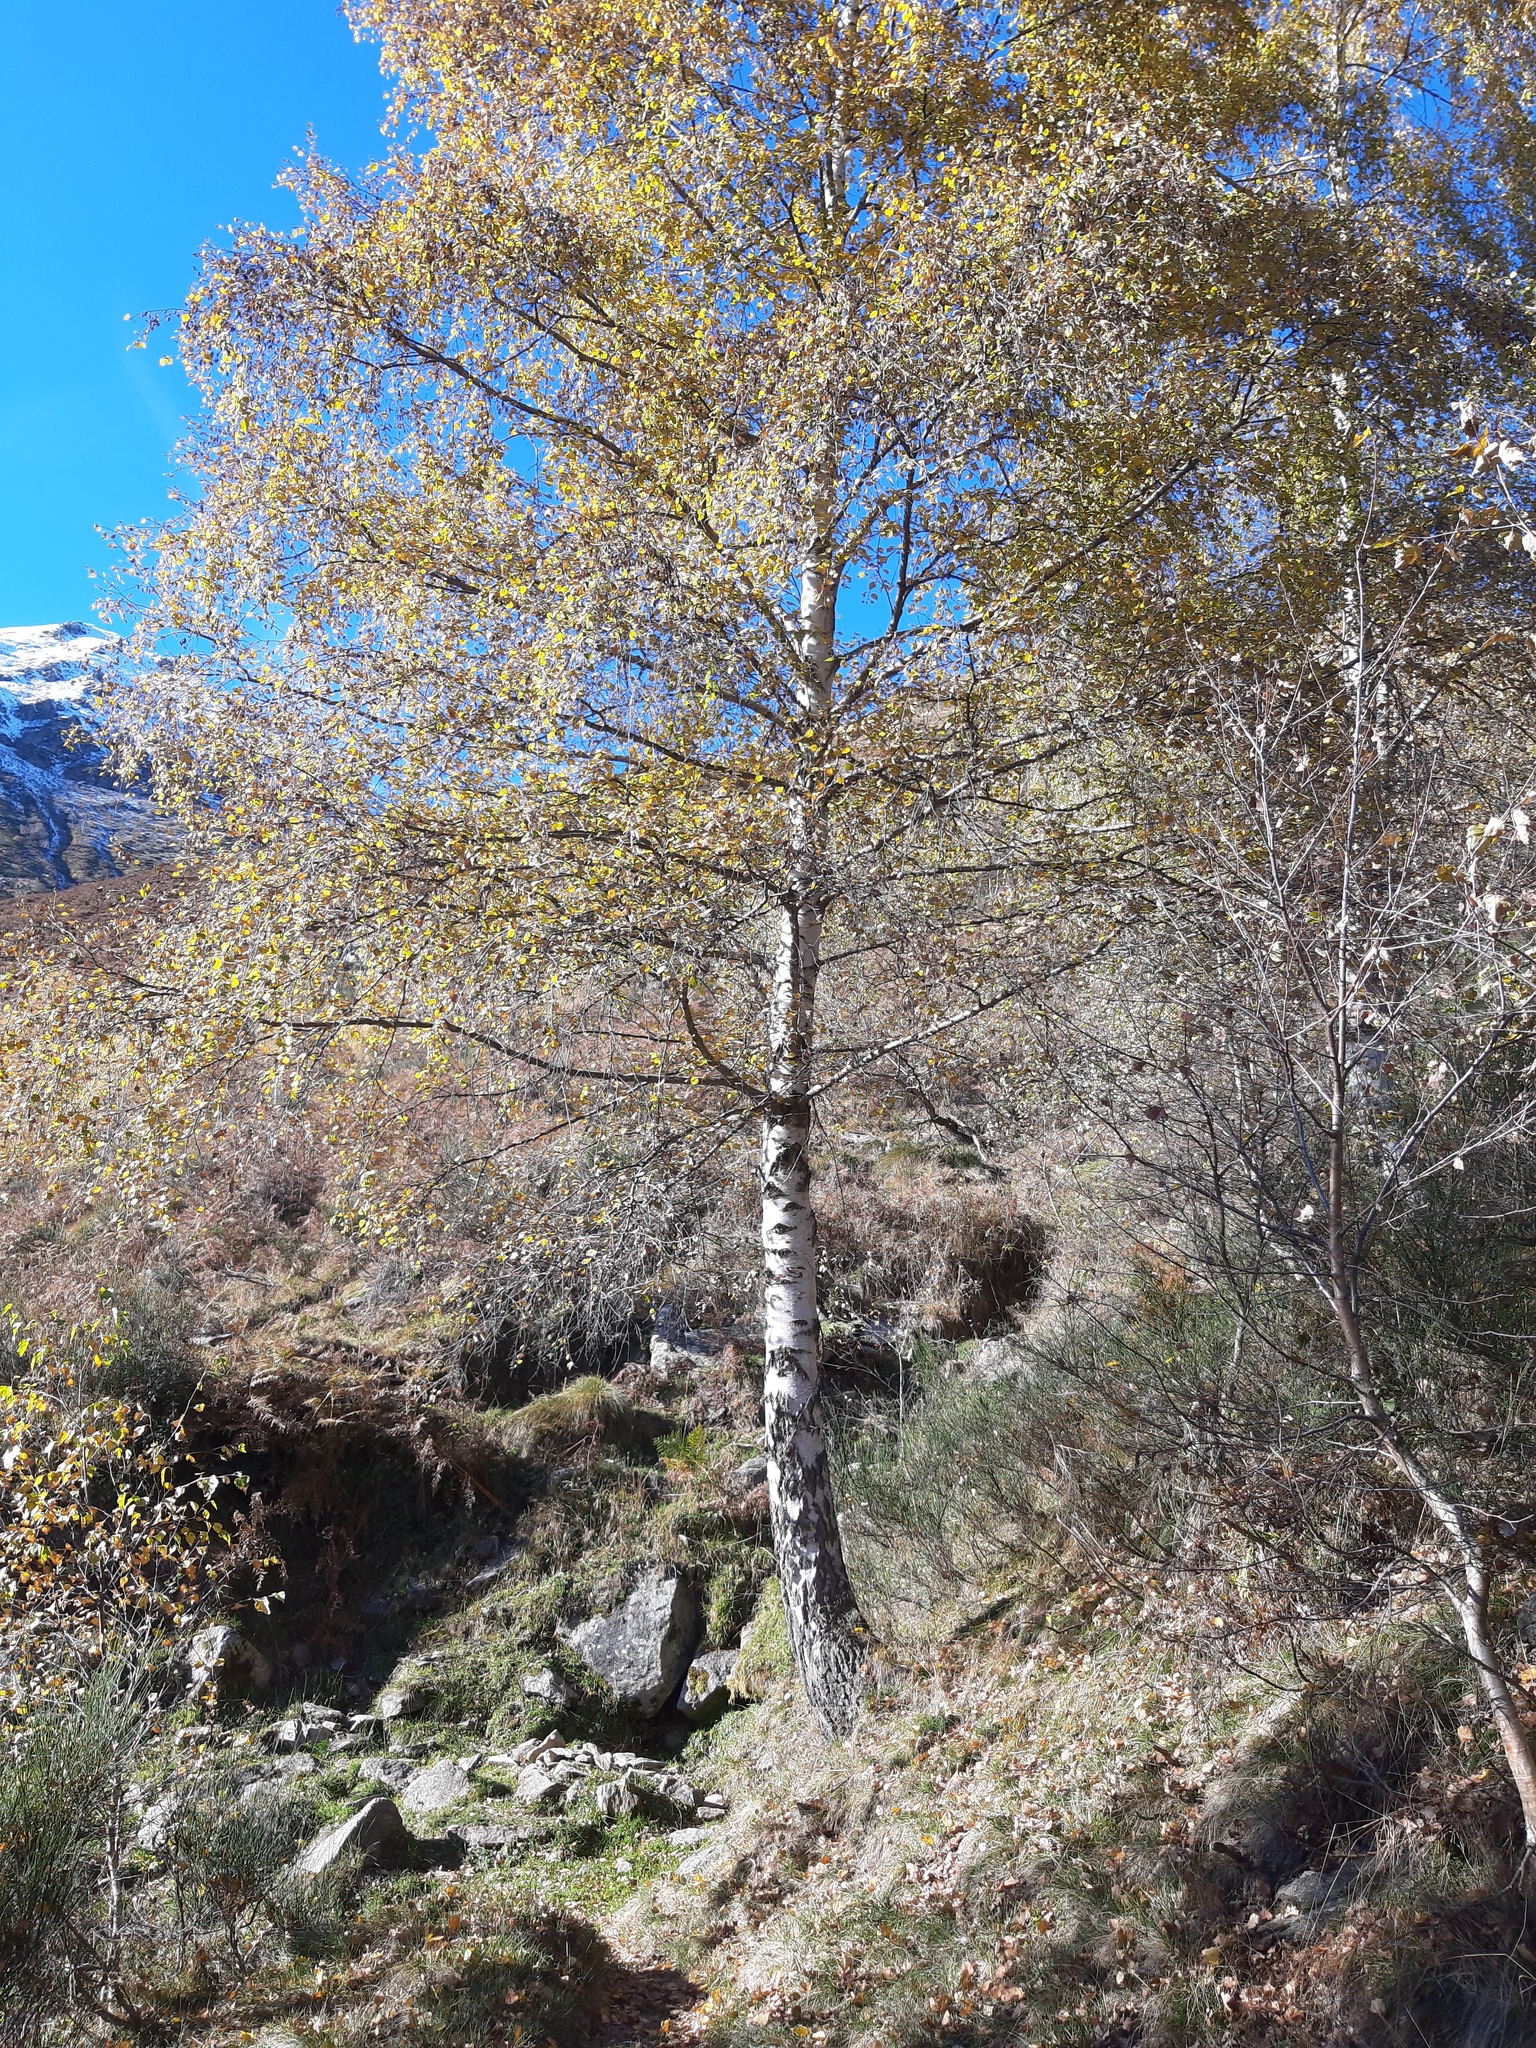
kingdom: Plantae
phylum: Tracheophyta
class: Magnoliopsida
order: Fagales
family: Betulaceae
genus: Betula
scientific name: Betula pendula
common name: Silver birch
